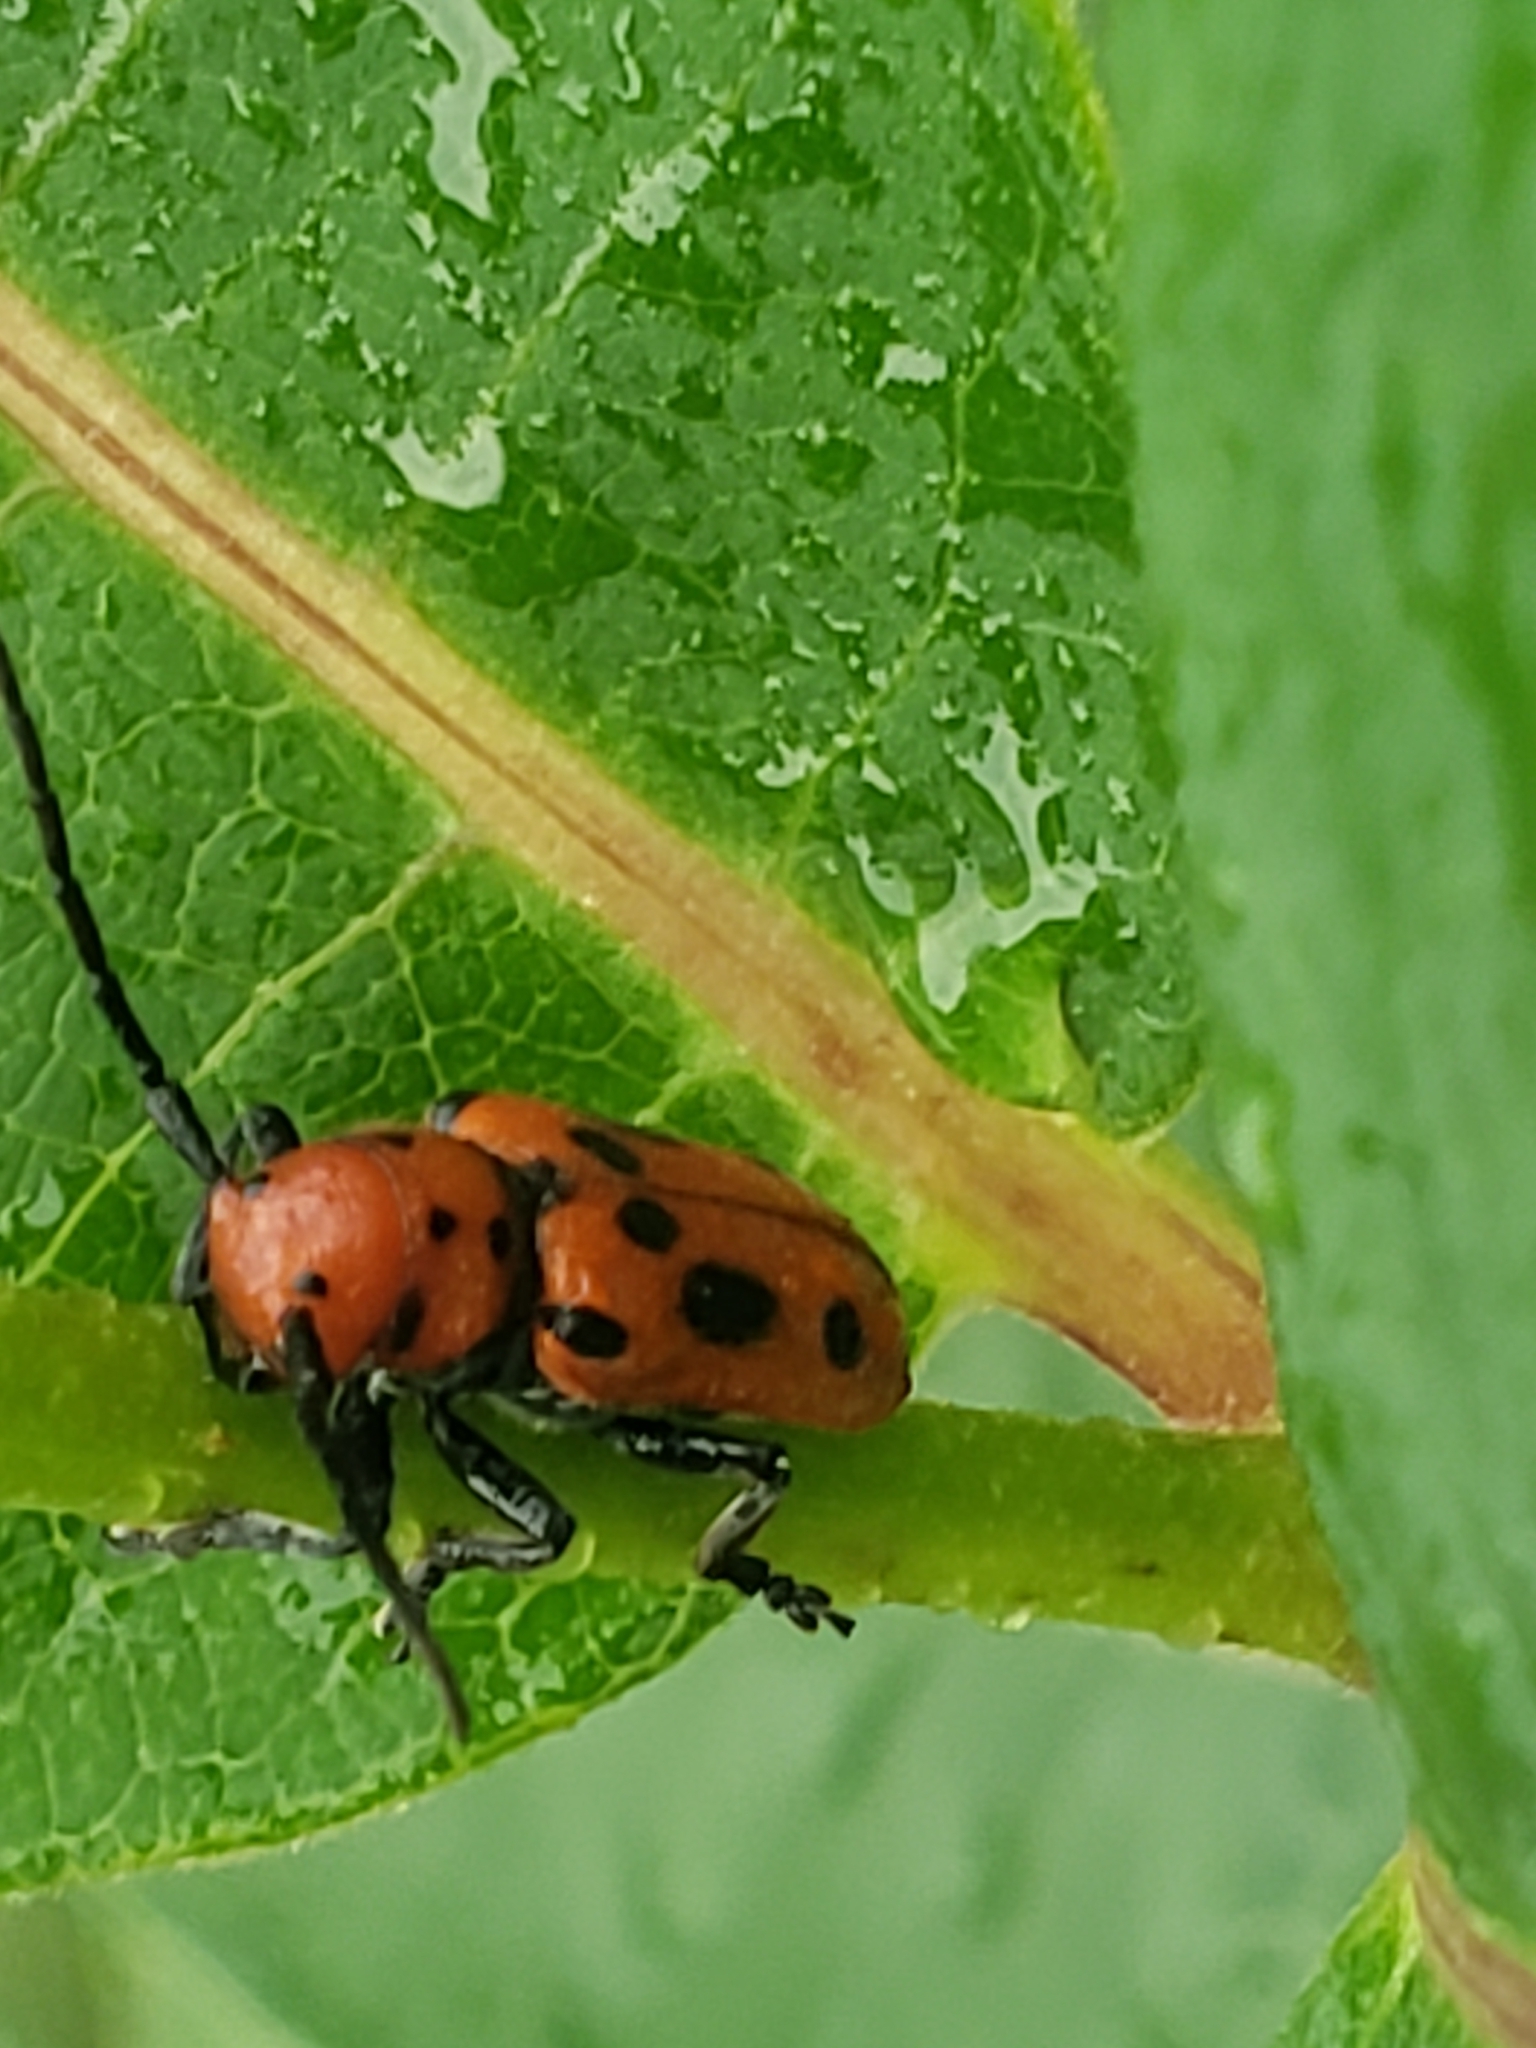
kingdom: Animalia
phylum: Arthropoda
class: Insecta
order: Coleoptera
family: Cerambycidae
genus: Tetraopes
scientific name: Tetraopes tetrophthalmus
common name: Red milkweed beetle
